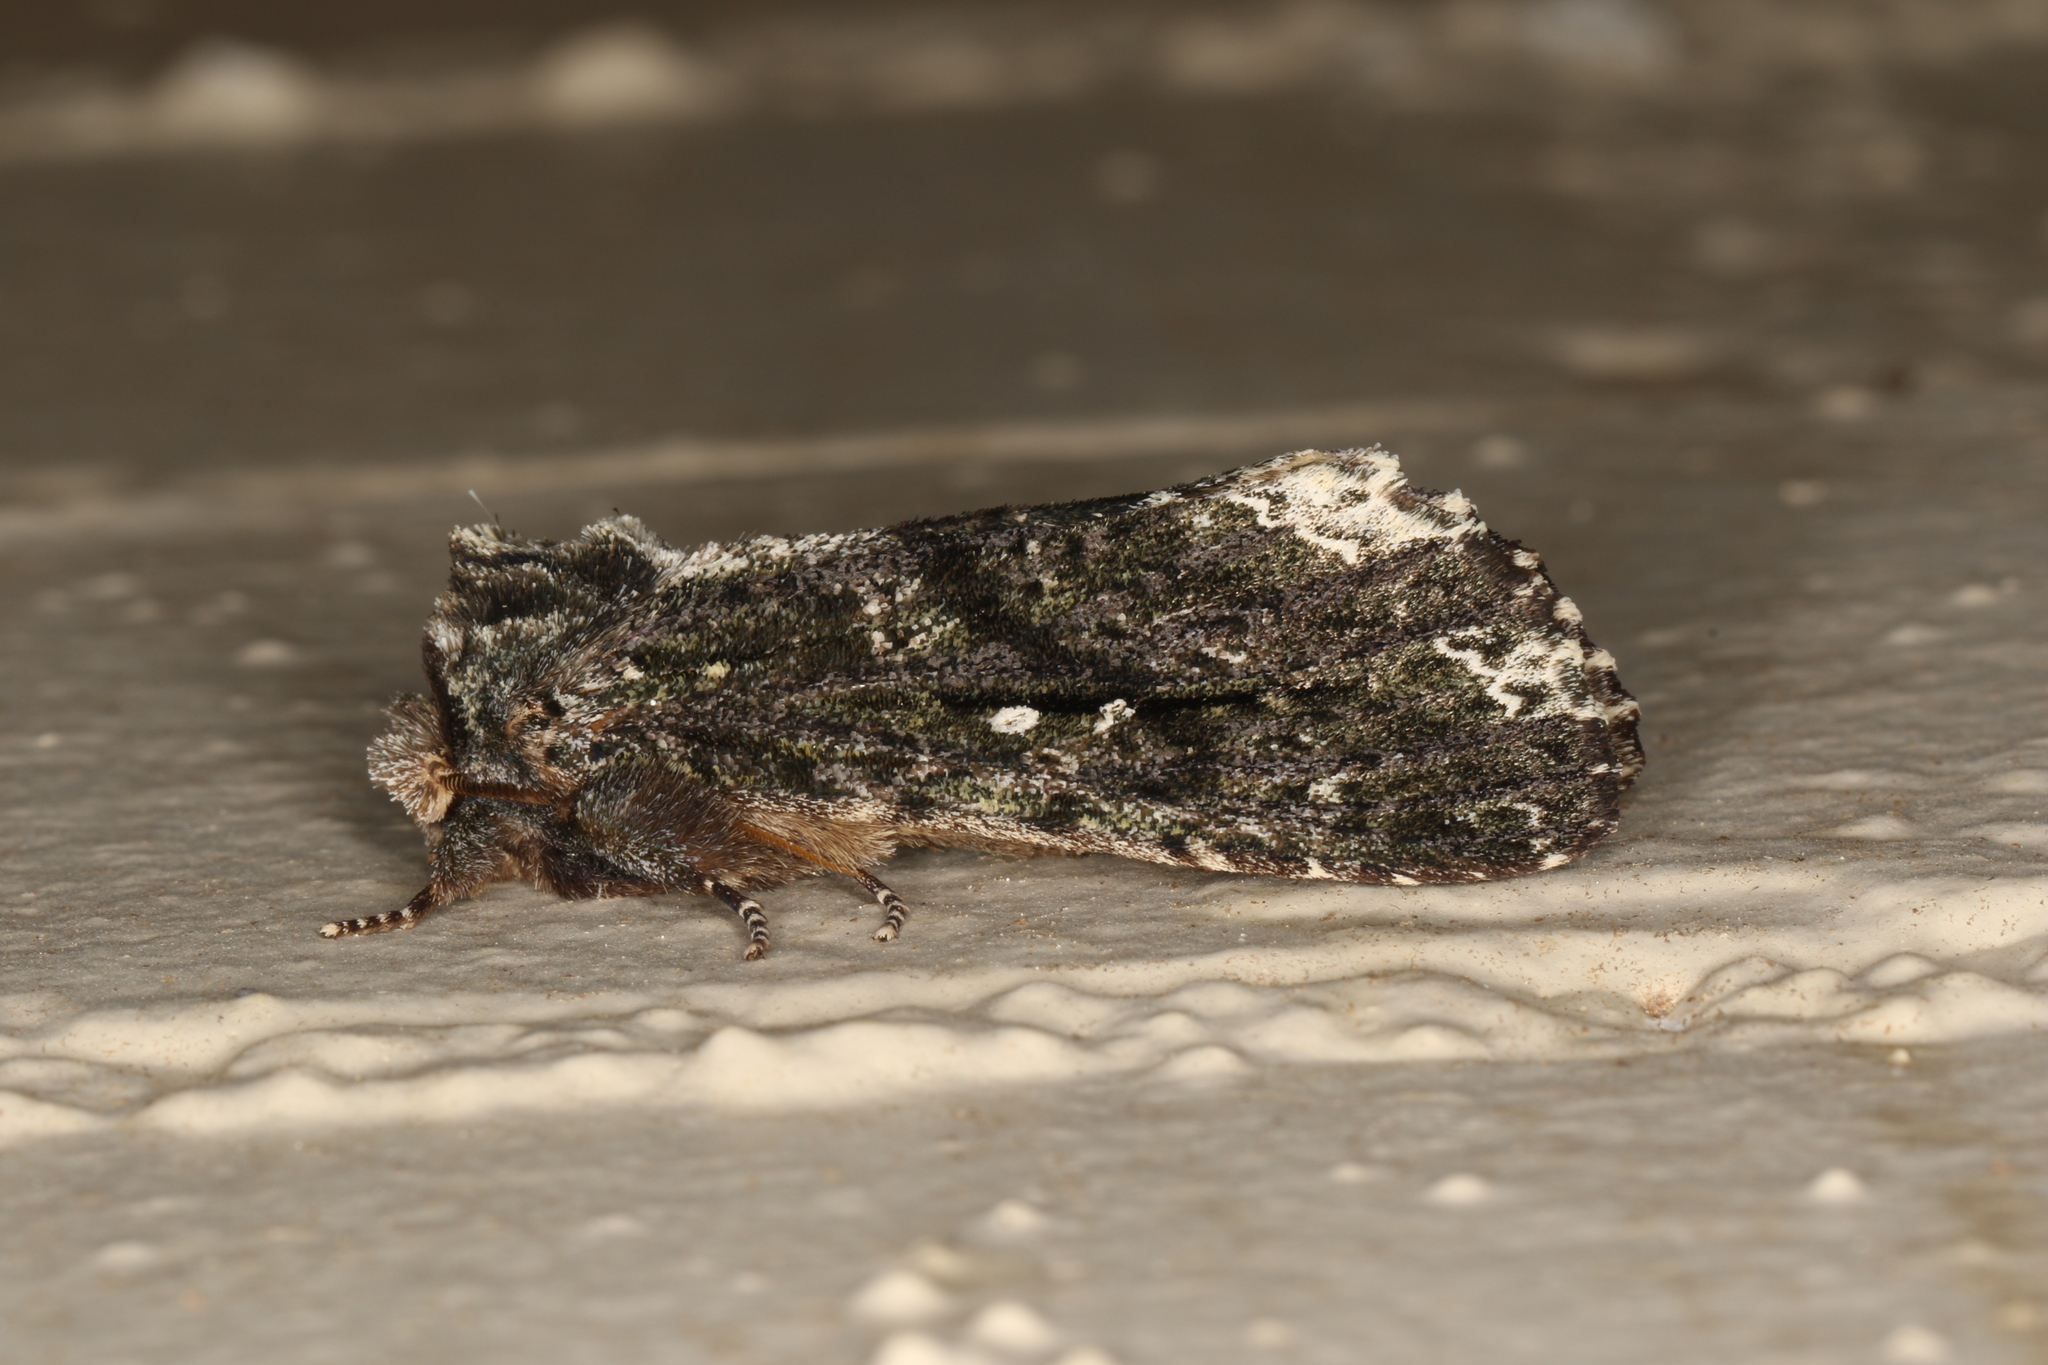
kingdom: Animalia
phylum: Arthropoda
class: Insecta
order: Lepidoptera
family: Notodontidae
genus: Neola
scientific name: Neola semiaurata
